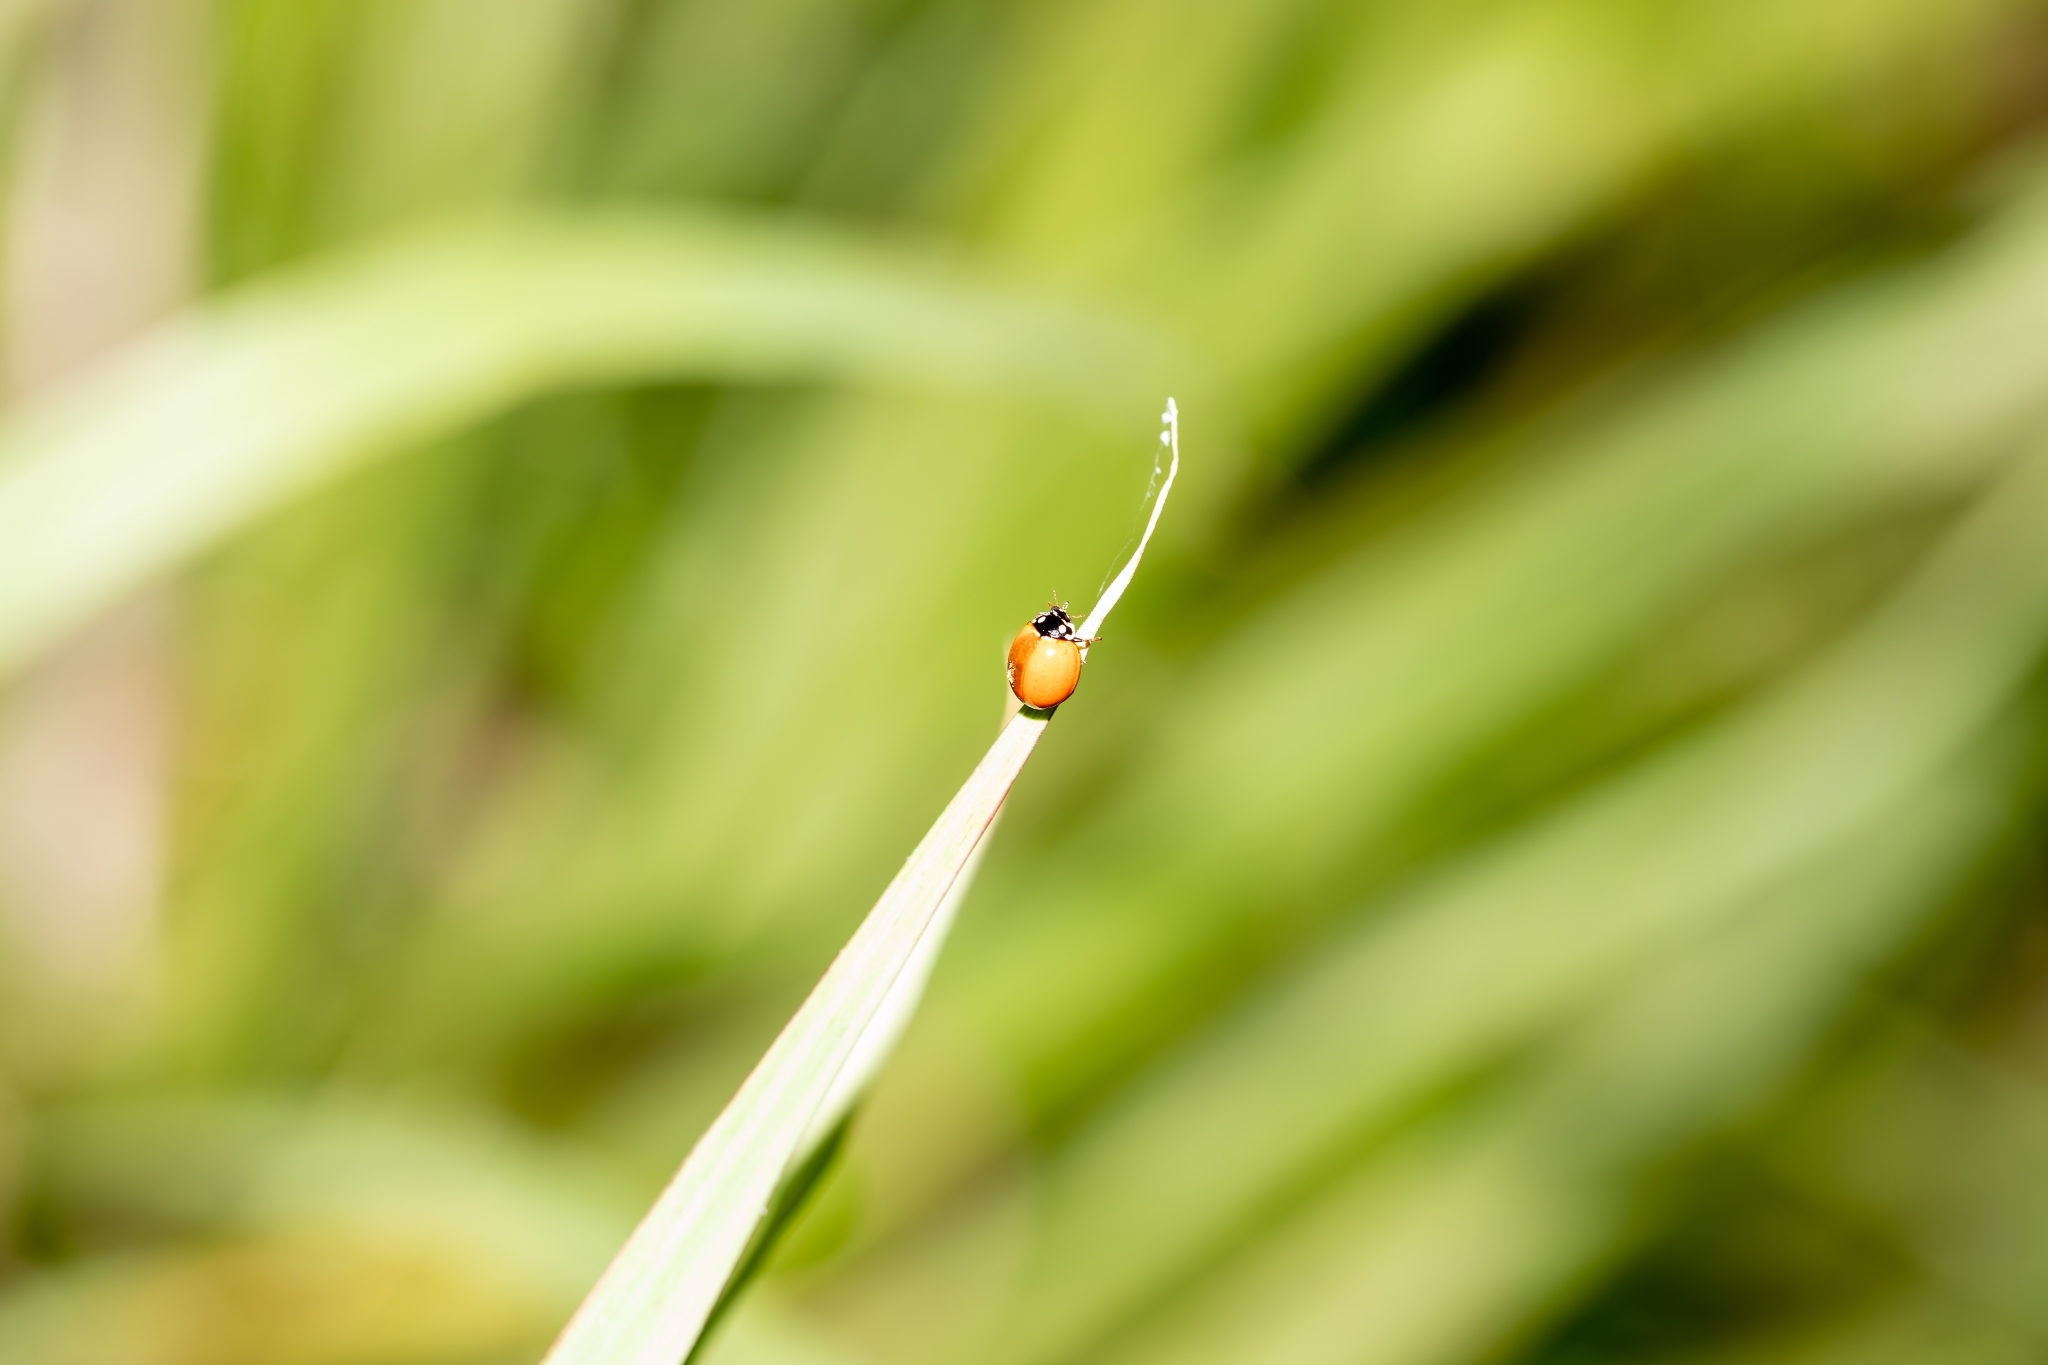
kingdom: Animalia
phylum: Arthropoda
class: Insecta
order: Coleoptera
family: Coccinellidae
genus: Cycloneda
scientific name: Cycloneda sanguinea
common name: Ladybird beetle
